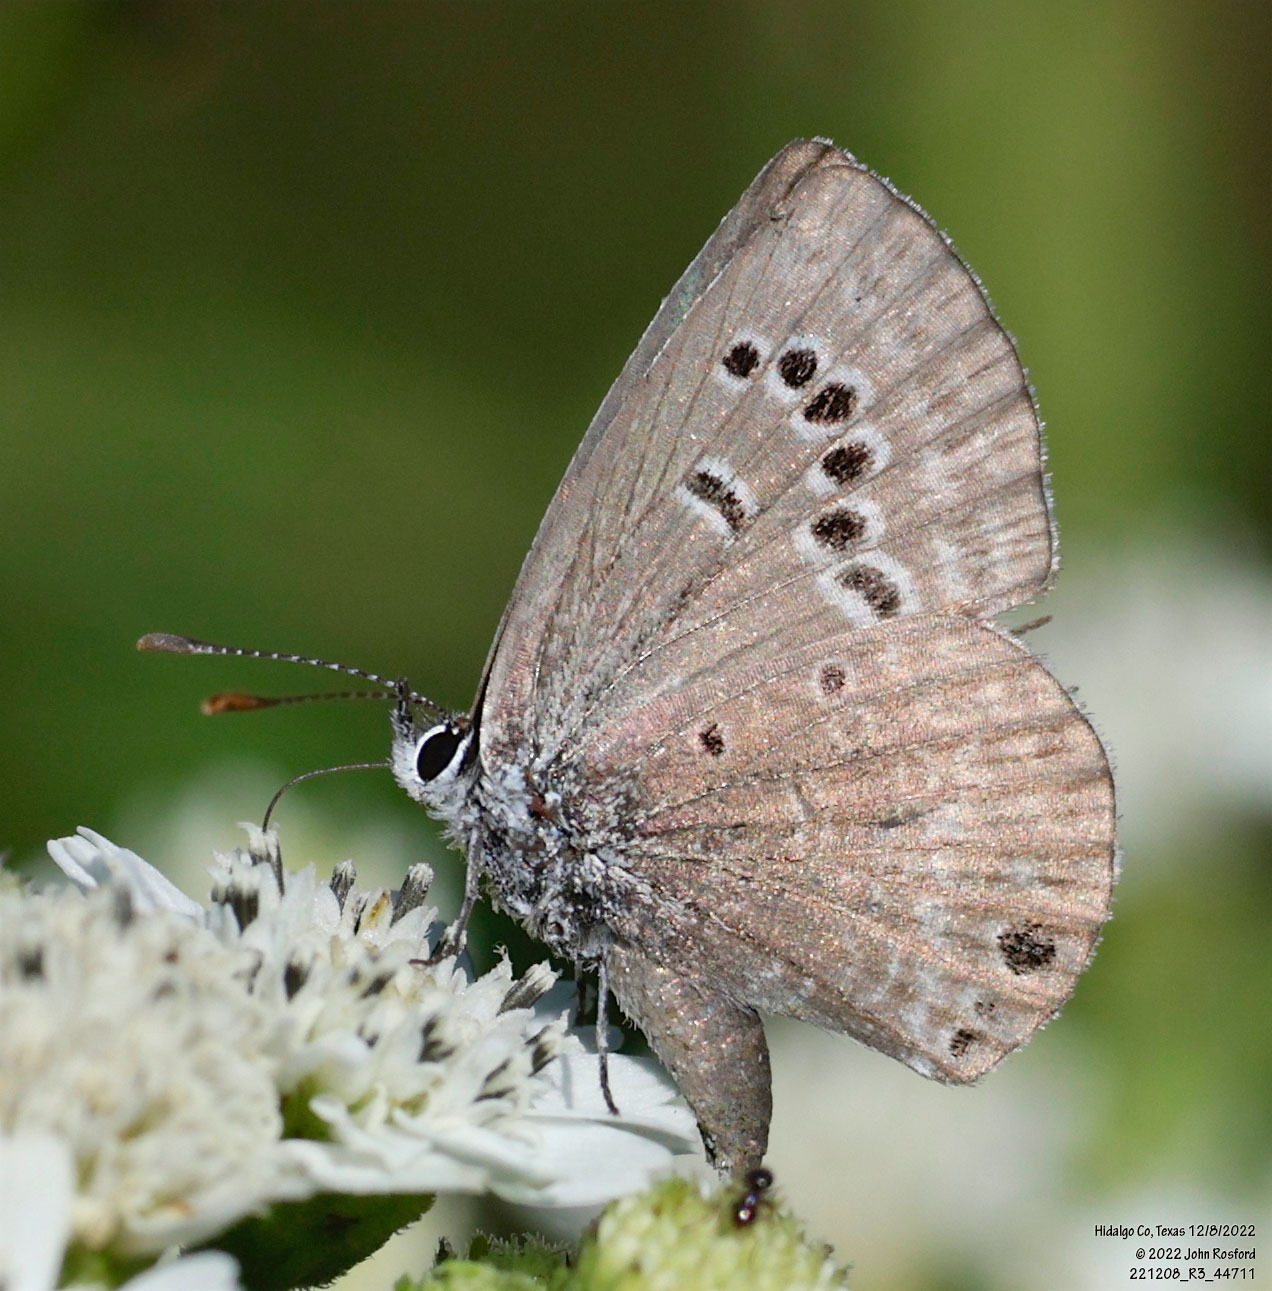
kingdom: Animalia
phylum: Arthropoda
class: Insecta
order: Lepidoptera
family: Lycaenidae
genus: Echinargus
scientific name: Echinargus isola
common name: Reakirt's blue
